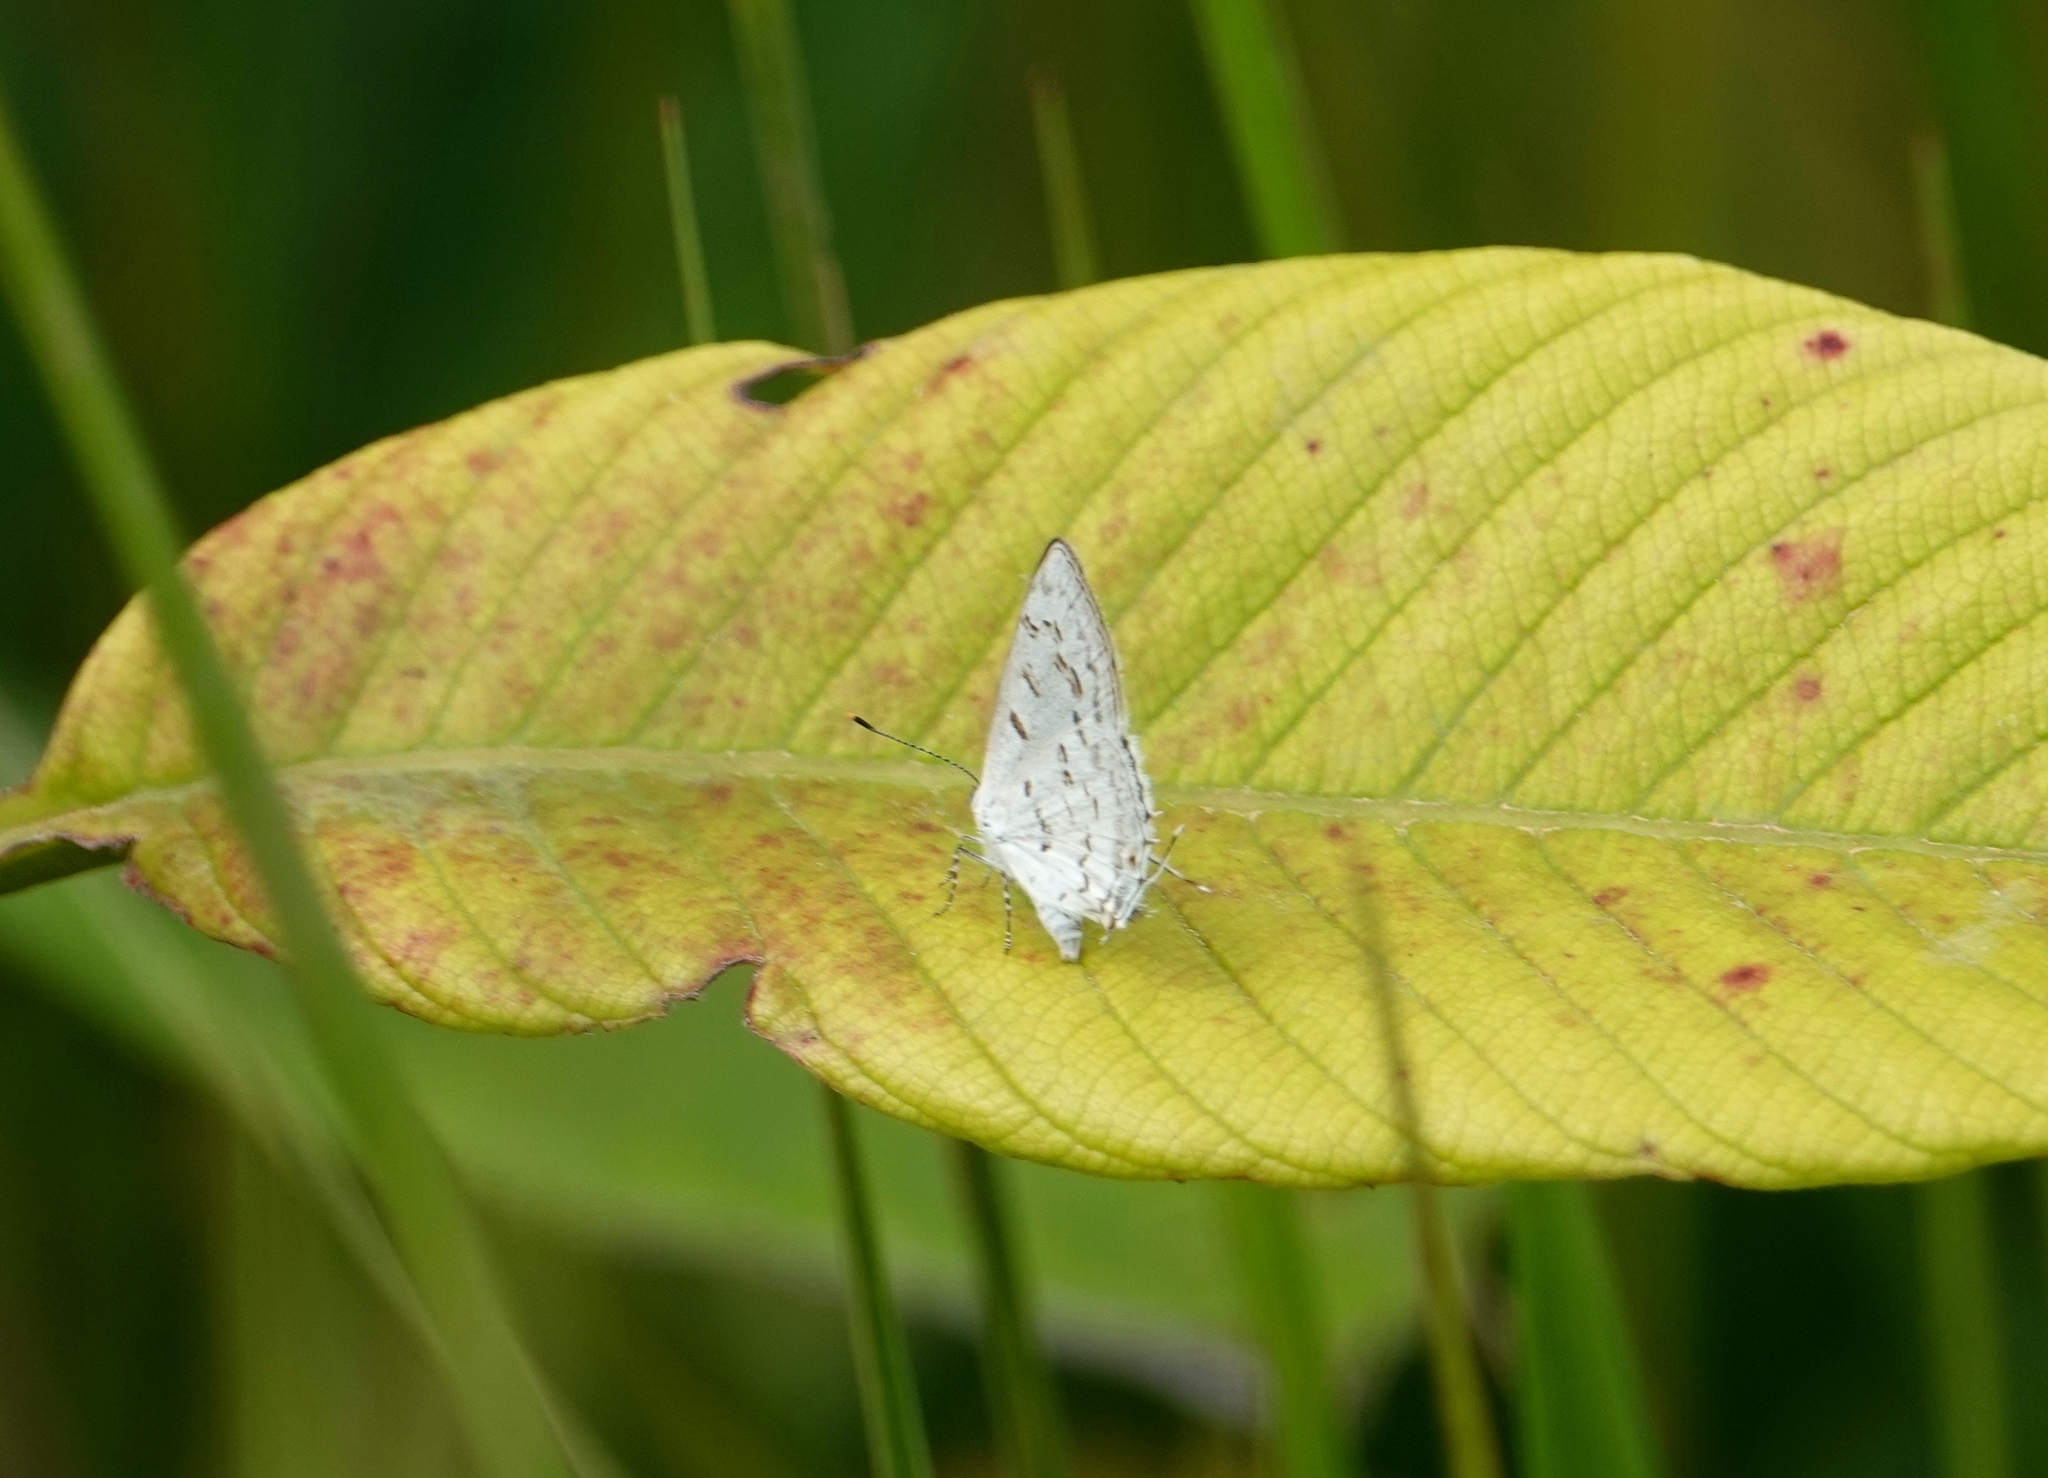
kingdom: Animalia
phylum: Arthropoda
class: Insecta
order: Lepidoptera
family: Lycaenidae
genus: Thecla
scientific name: Thecla una
